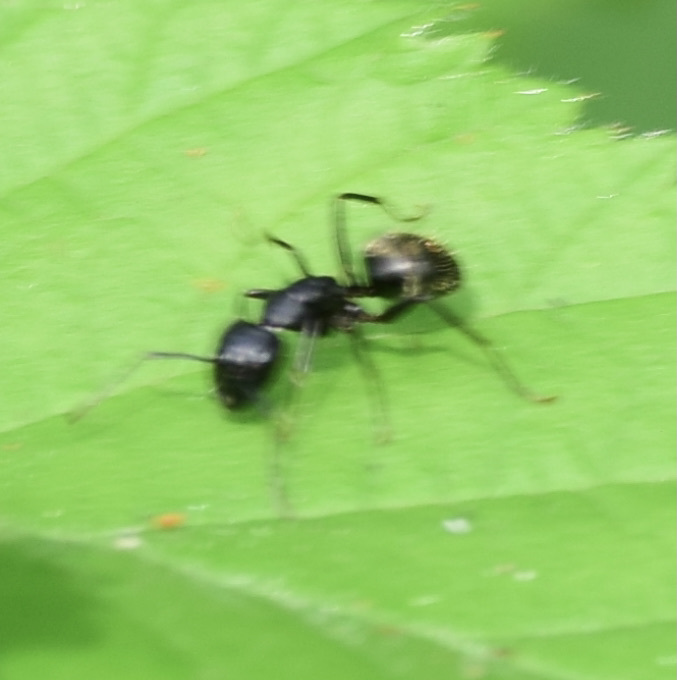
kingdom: Animalia
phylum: Arthropoda
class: Insecta
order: Hymenoptera
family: Formicidae
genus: Camponotus
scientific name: Camponotus pennsylvanicus
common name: Black carpenter ant
